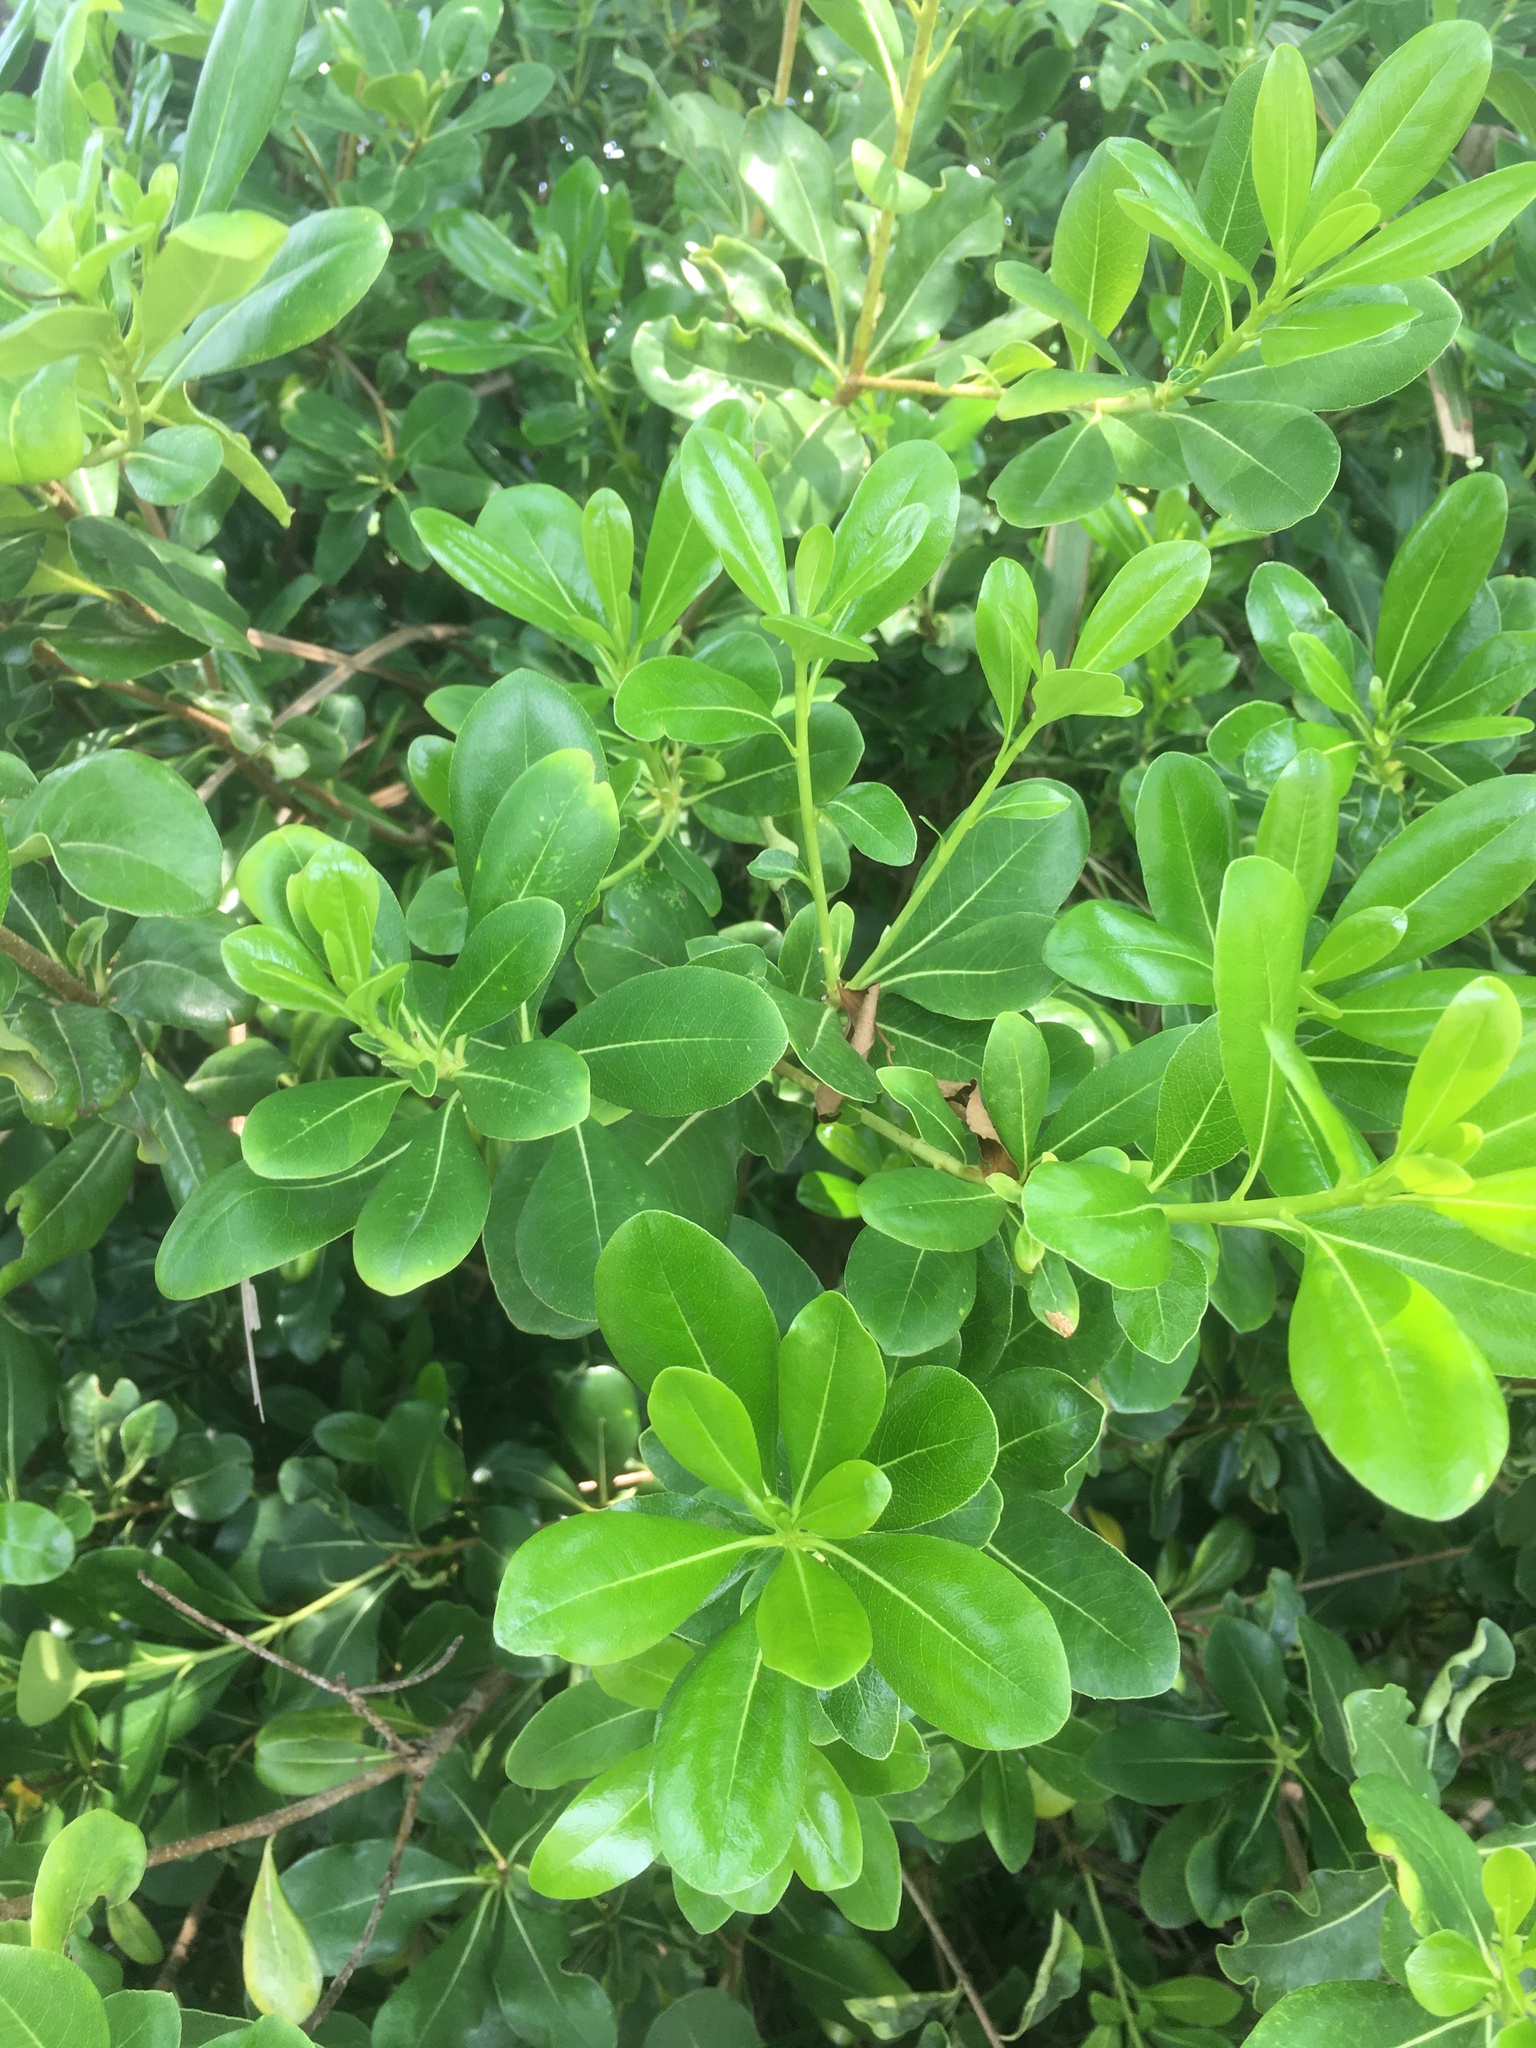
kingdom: Plantae
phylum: Tracheophyta
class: Magnoliopsida
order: Apiales
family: Pittosporaceae
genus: Pittosporum
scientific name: Pittosporum tobira
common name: Japanese cheesewood
